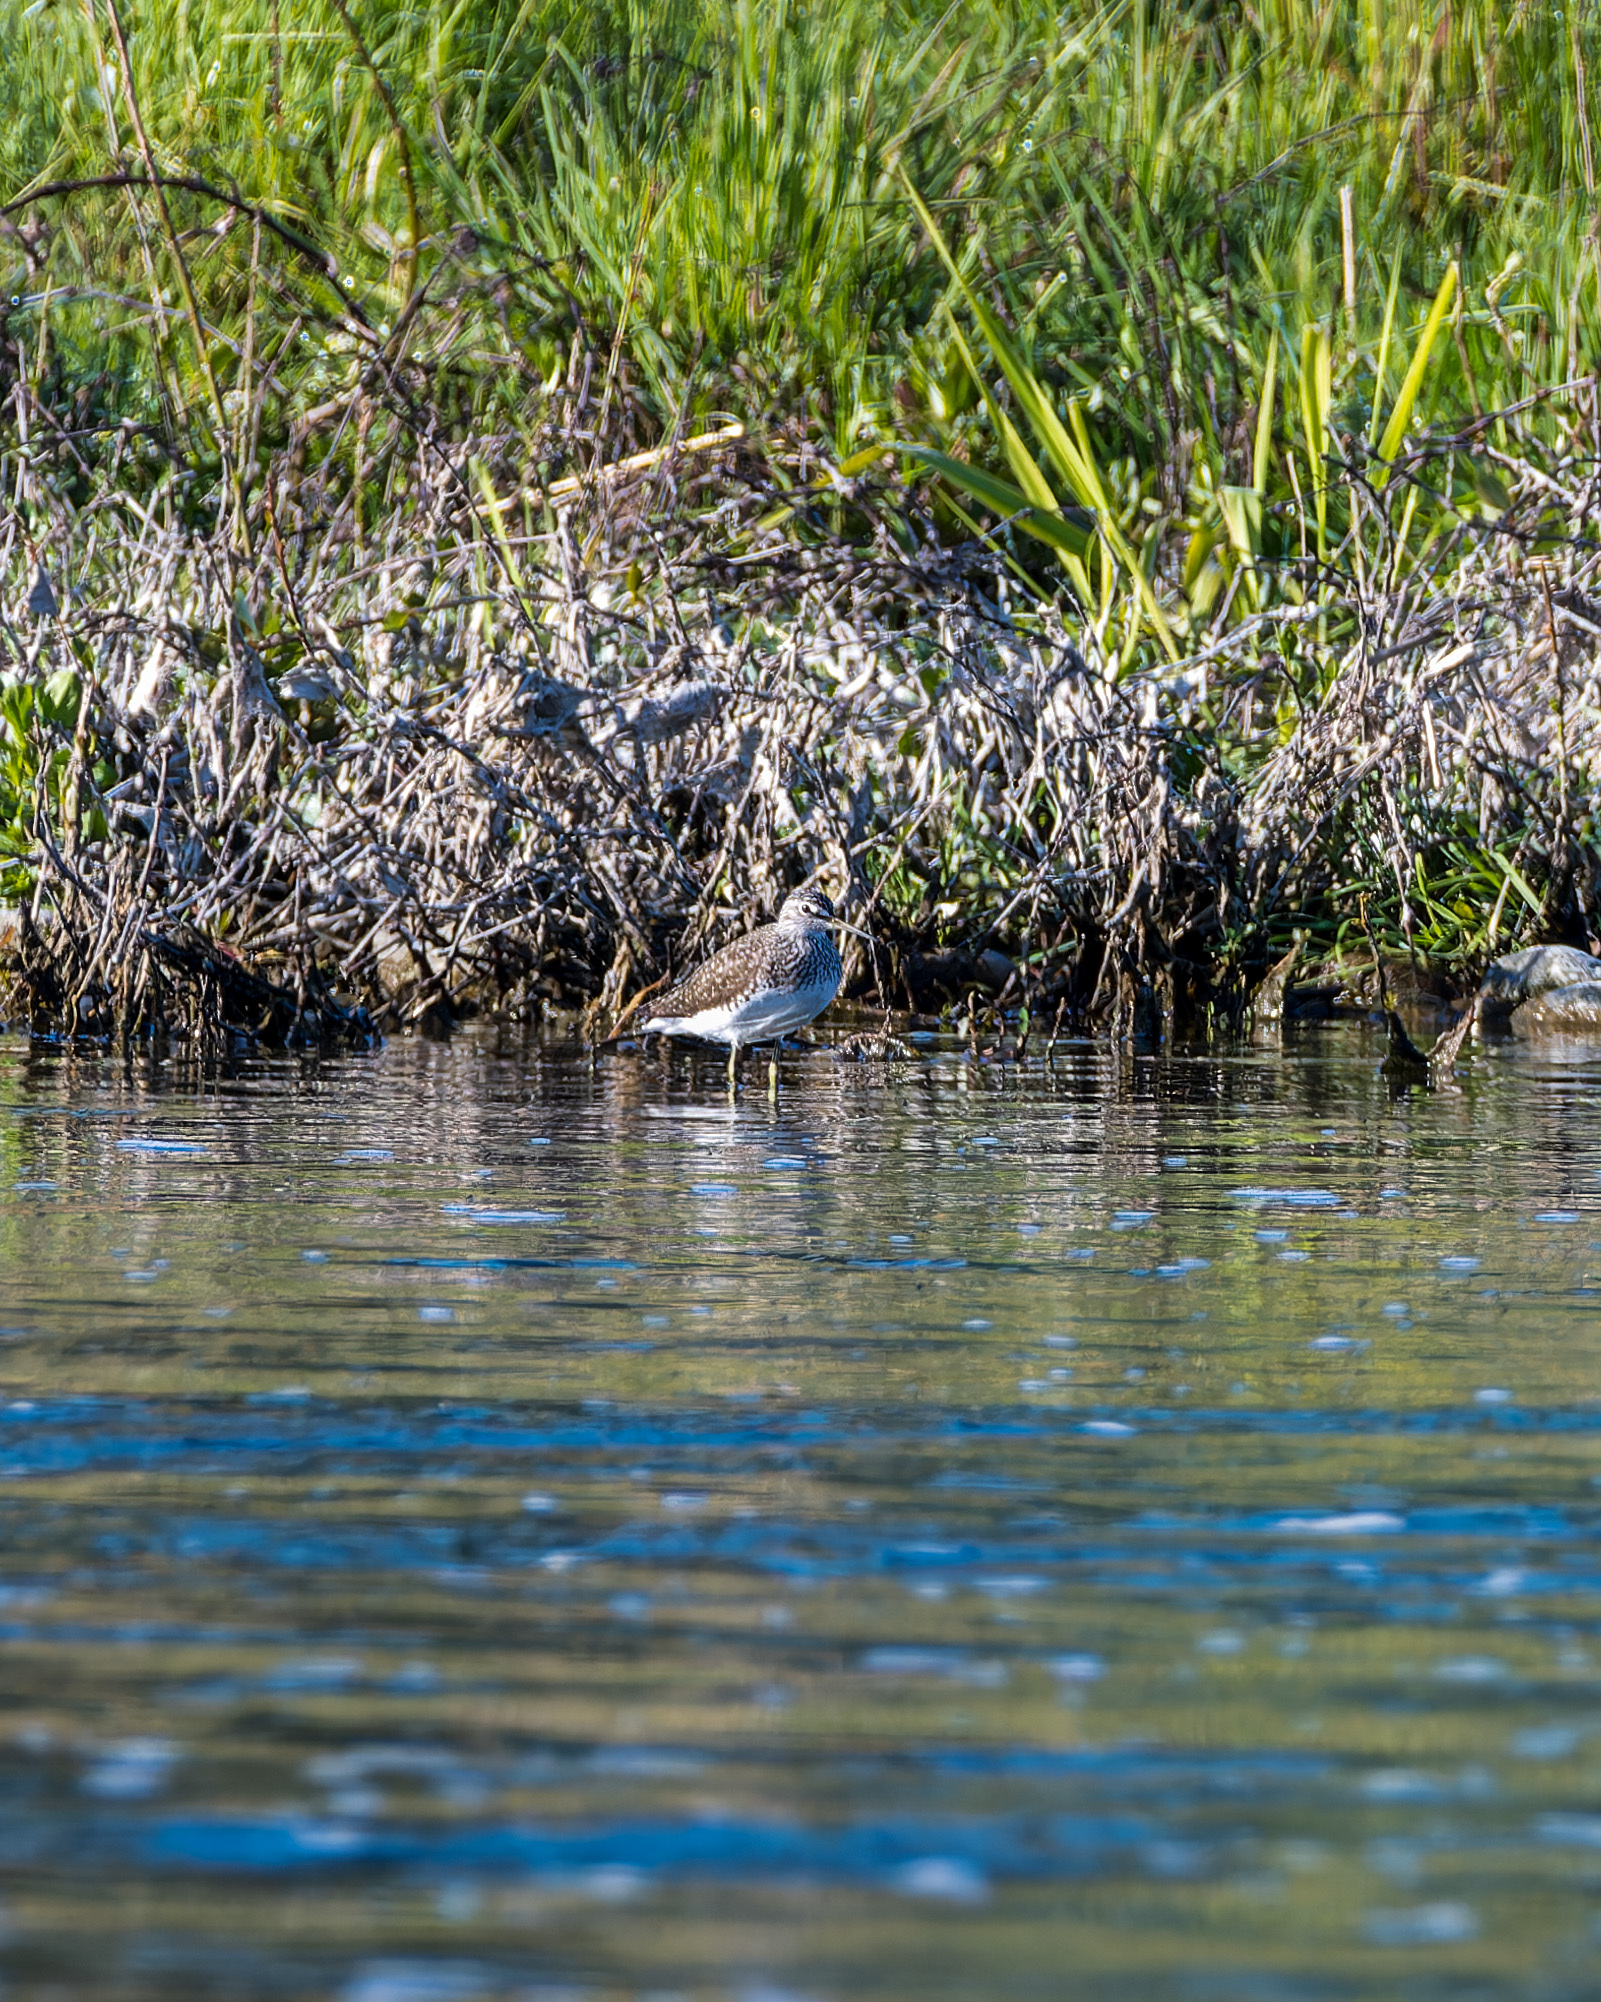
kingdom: Animalia
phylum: Chordata
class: Aves
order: Charadriiformes
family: Scolopacidae
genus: Tringa
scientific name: Tringa glareola
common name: Wood sandpiper
